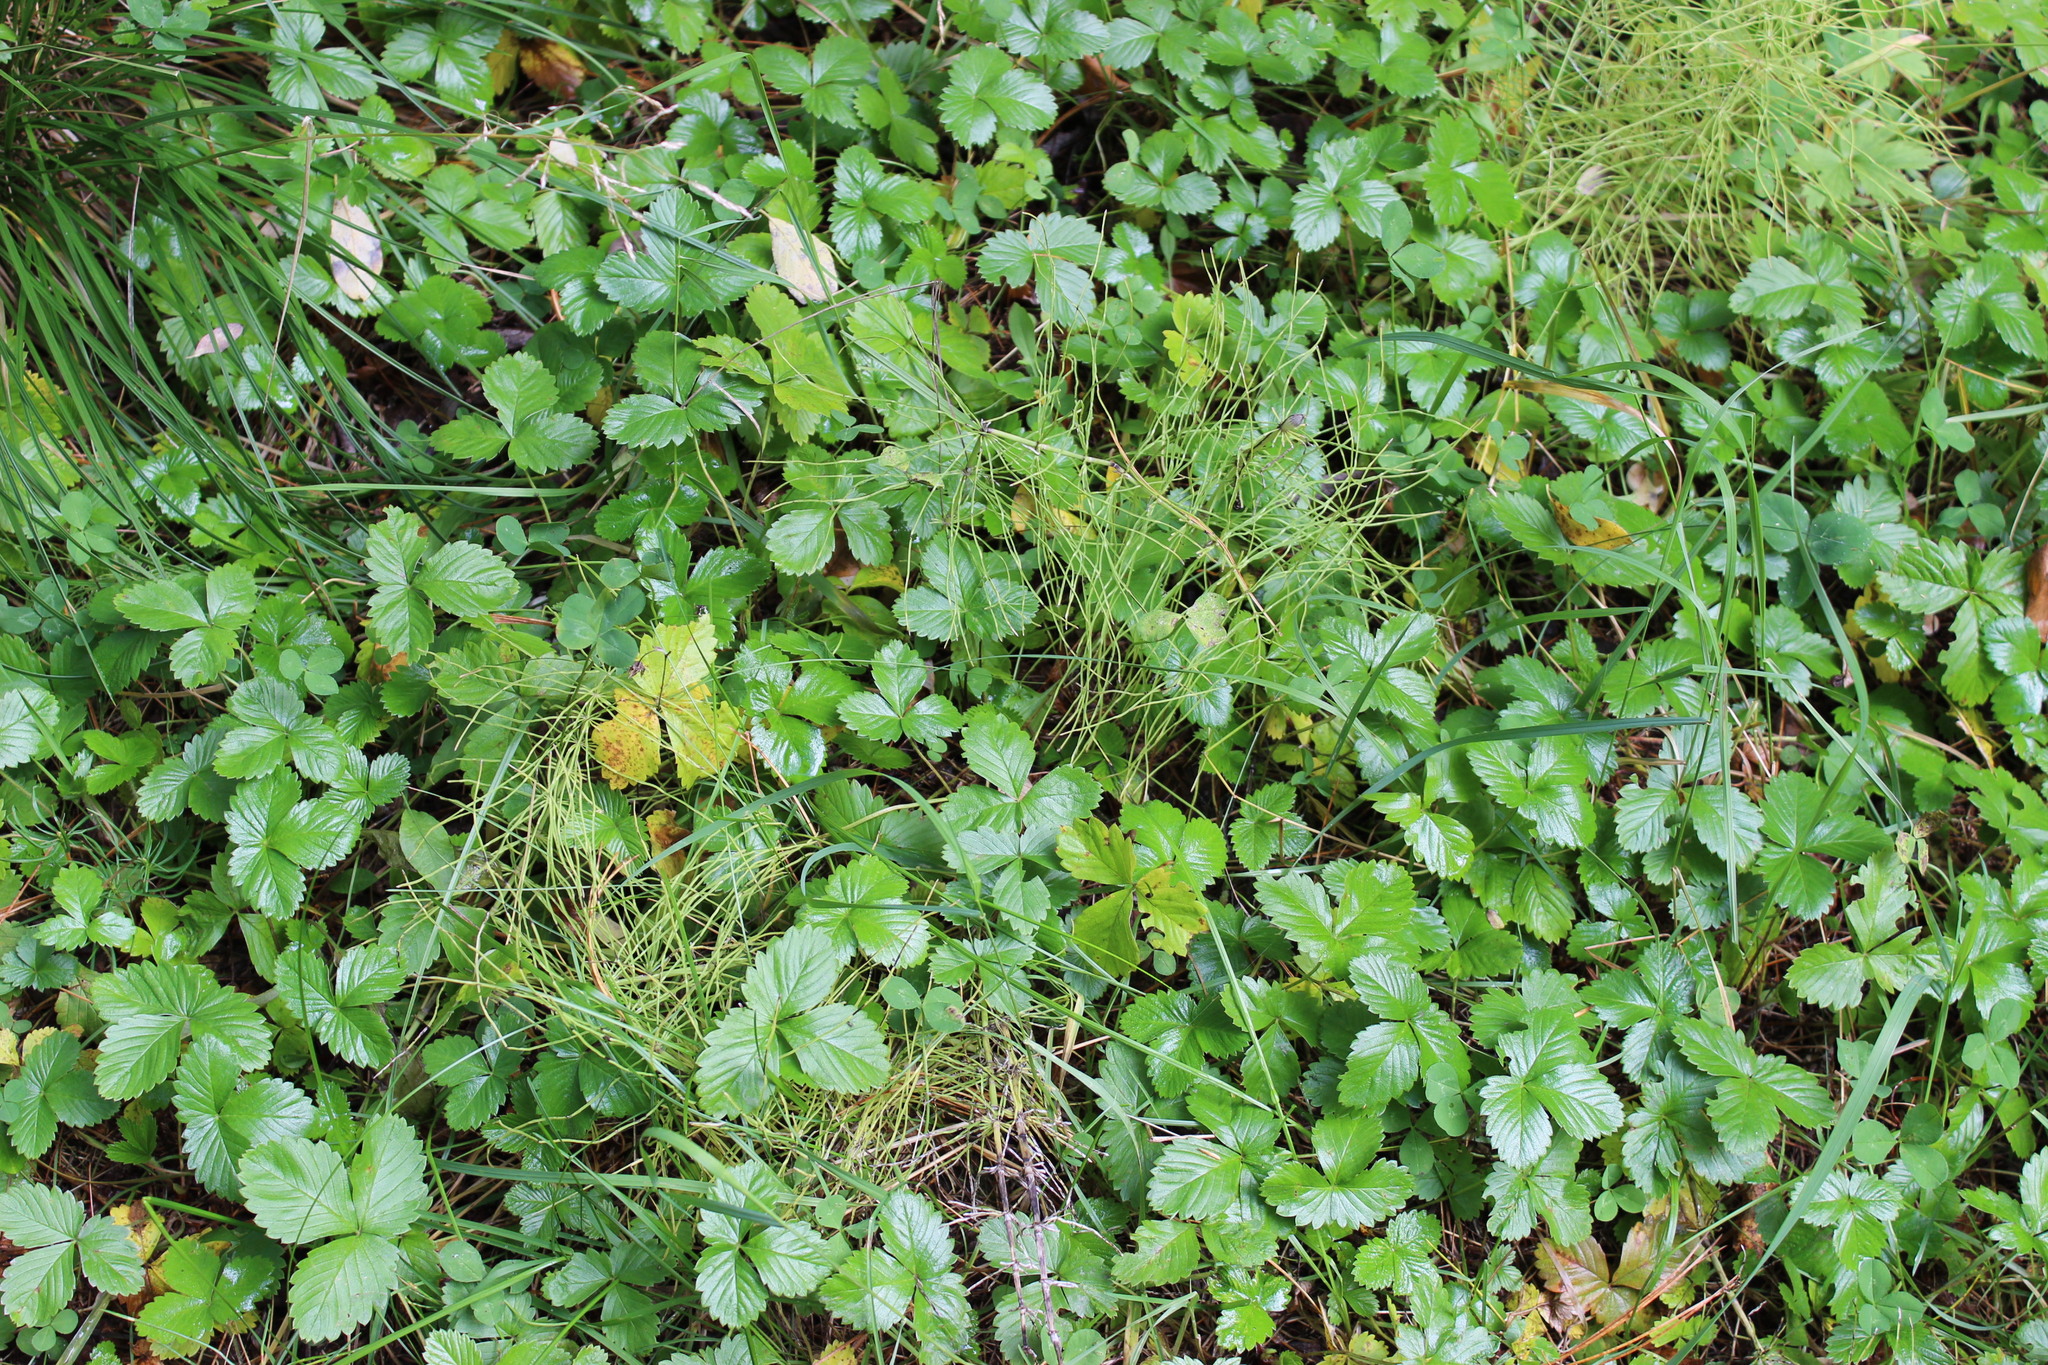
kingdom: Plantae
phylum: Tracheophyta
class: Magnoliopsida
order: Rosales
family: Rosaceae
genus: Fragaria
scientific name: Fragaria vesca
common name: Wild strawberry
